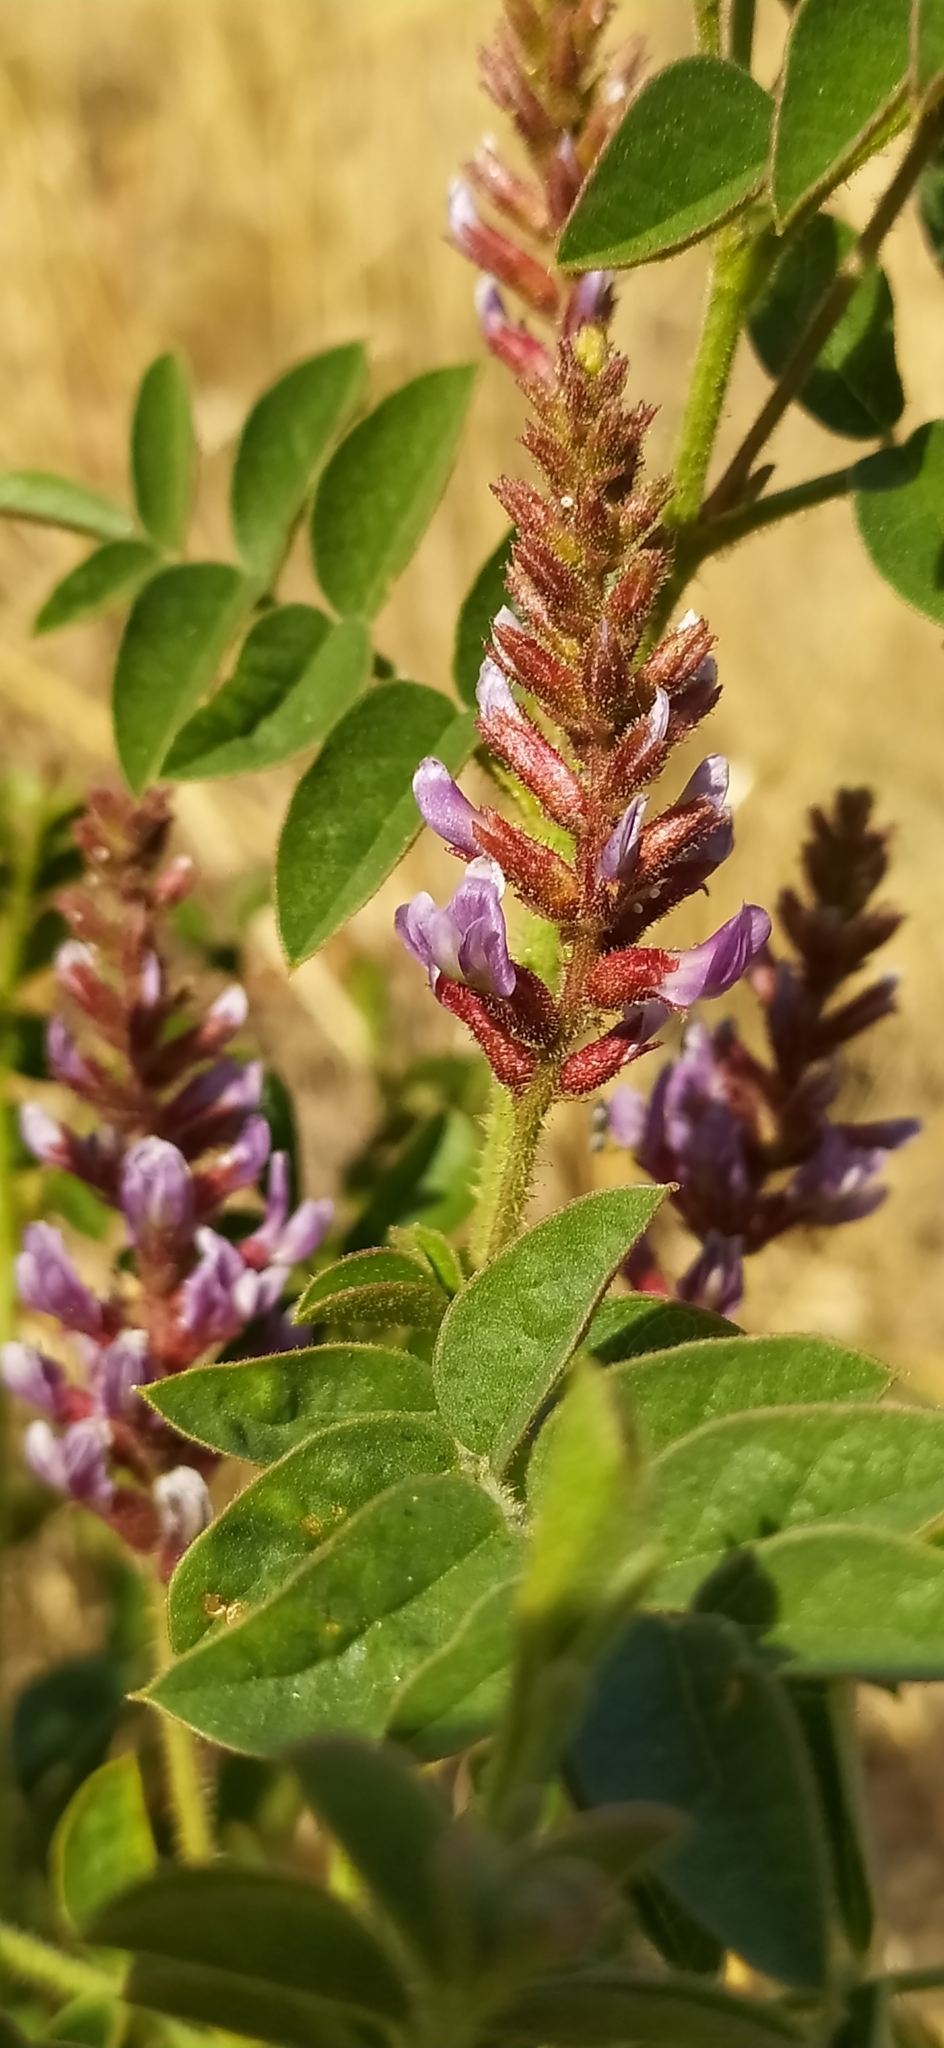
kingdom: Plantae
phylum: Tracheophyta
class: Magnoliopsida
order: Fabales
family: Fabaceae
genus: Glycyrrhiza
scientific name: Glycyrrhiza glabra
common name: Liquorice
